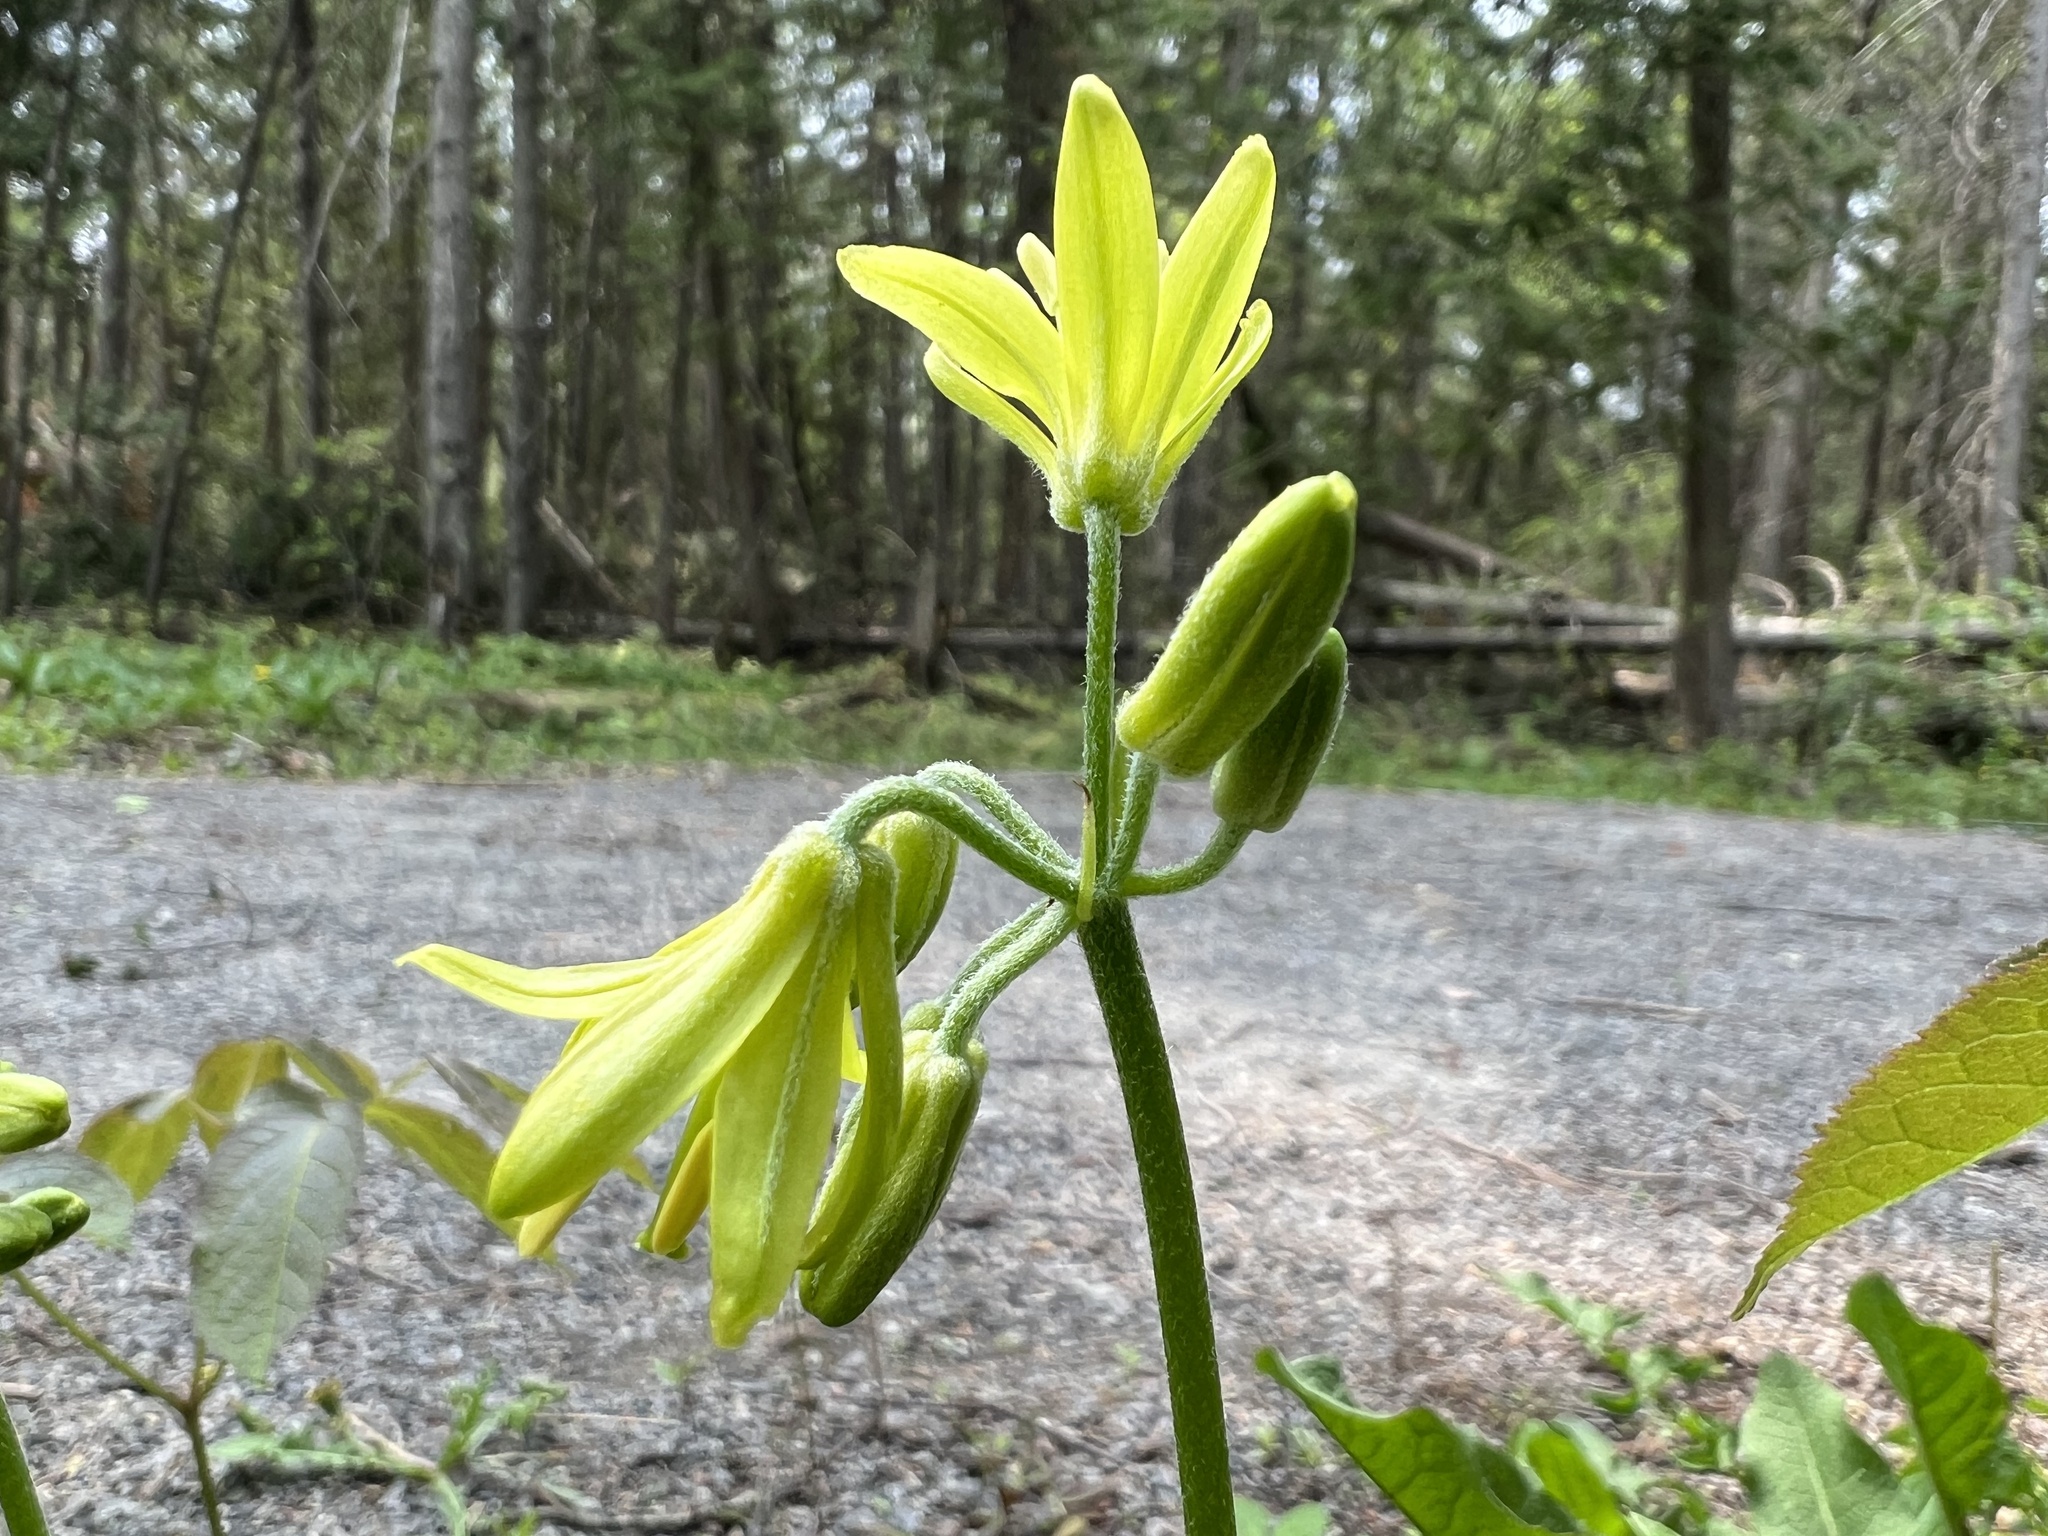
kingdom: Plantae
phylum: Tracheophyta
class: Liliopsida
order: Liliales
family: Liliaceae
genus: Clintonia
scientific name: Clintonia borealis
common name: Yellow clintonia
